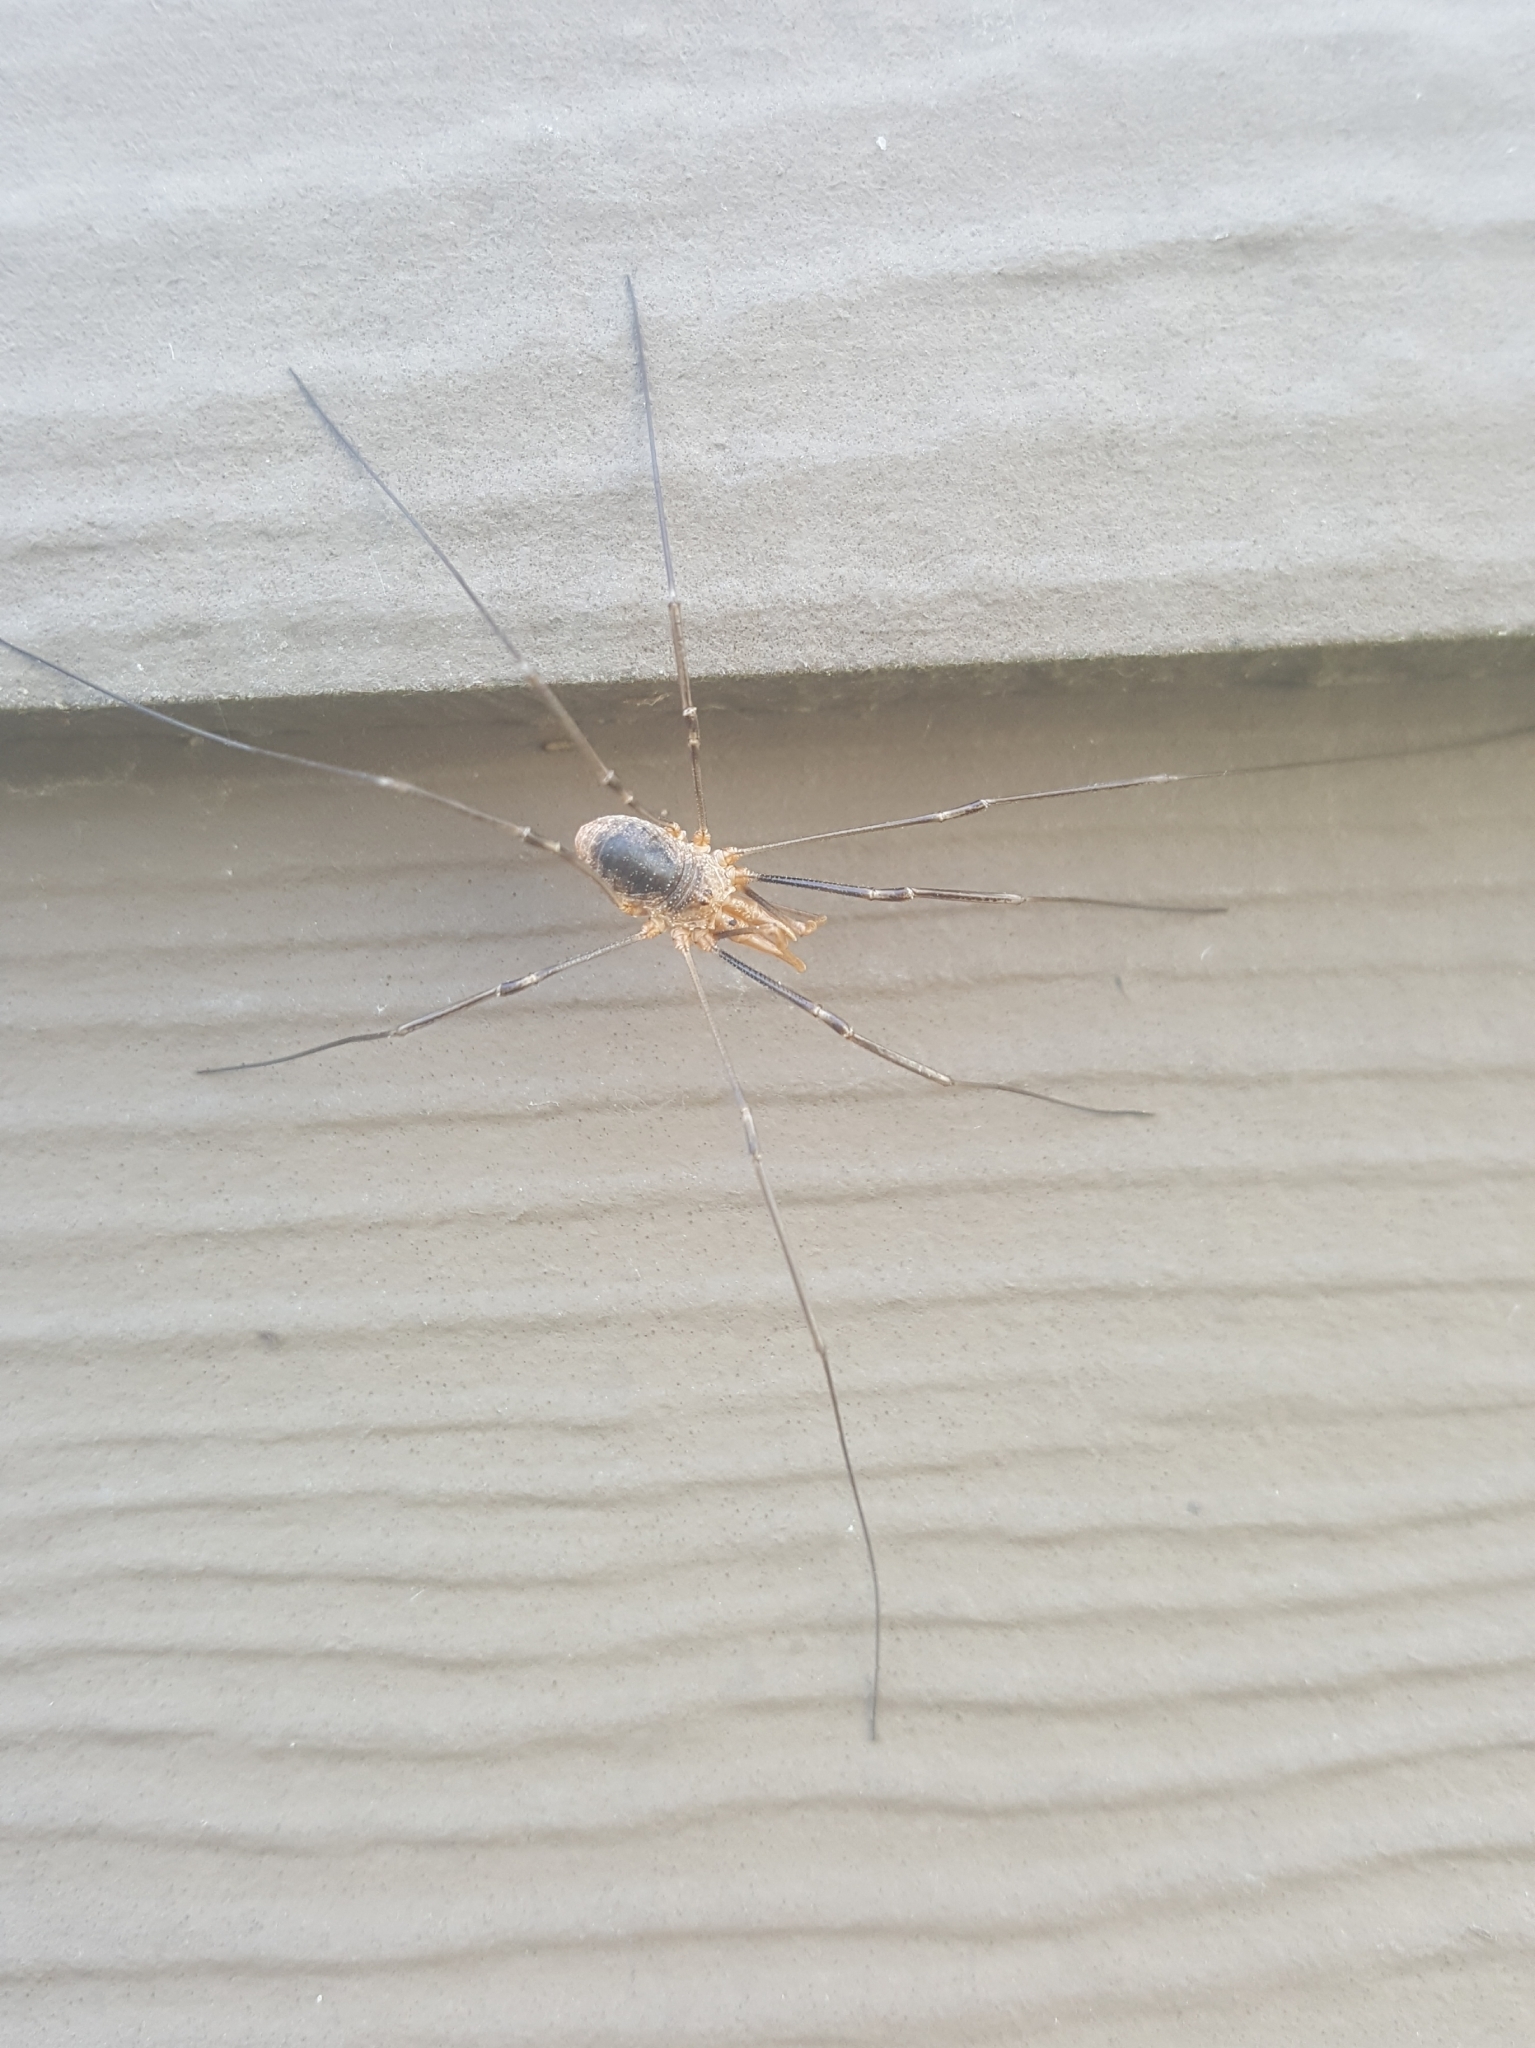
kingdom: Animalia
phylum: Arthropoda
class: Arachnida
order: Opiliones
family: Phalangiidae
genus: Phalangium
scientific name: Phalangium opilio
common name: Daddy longleg
